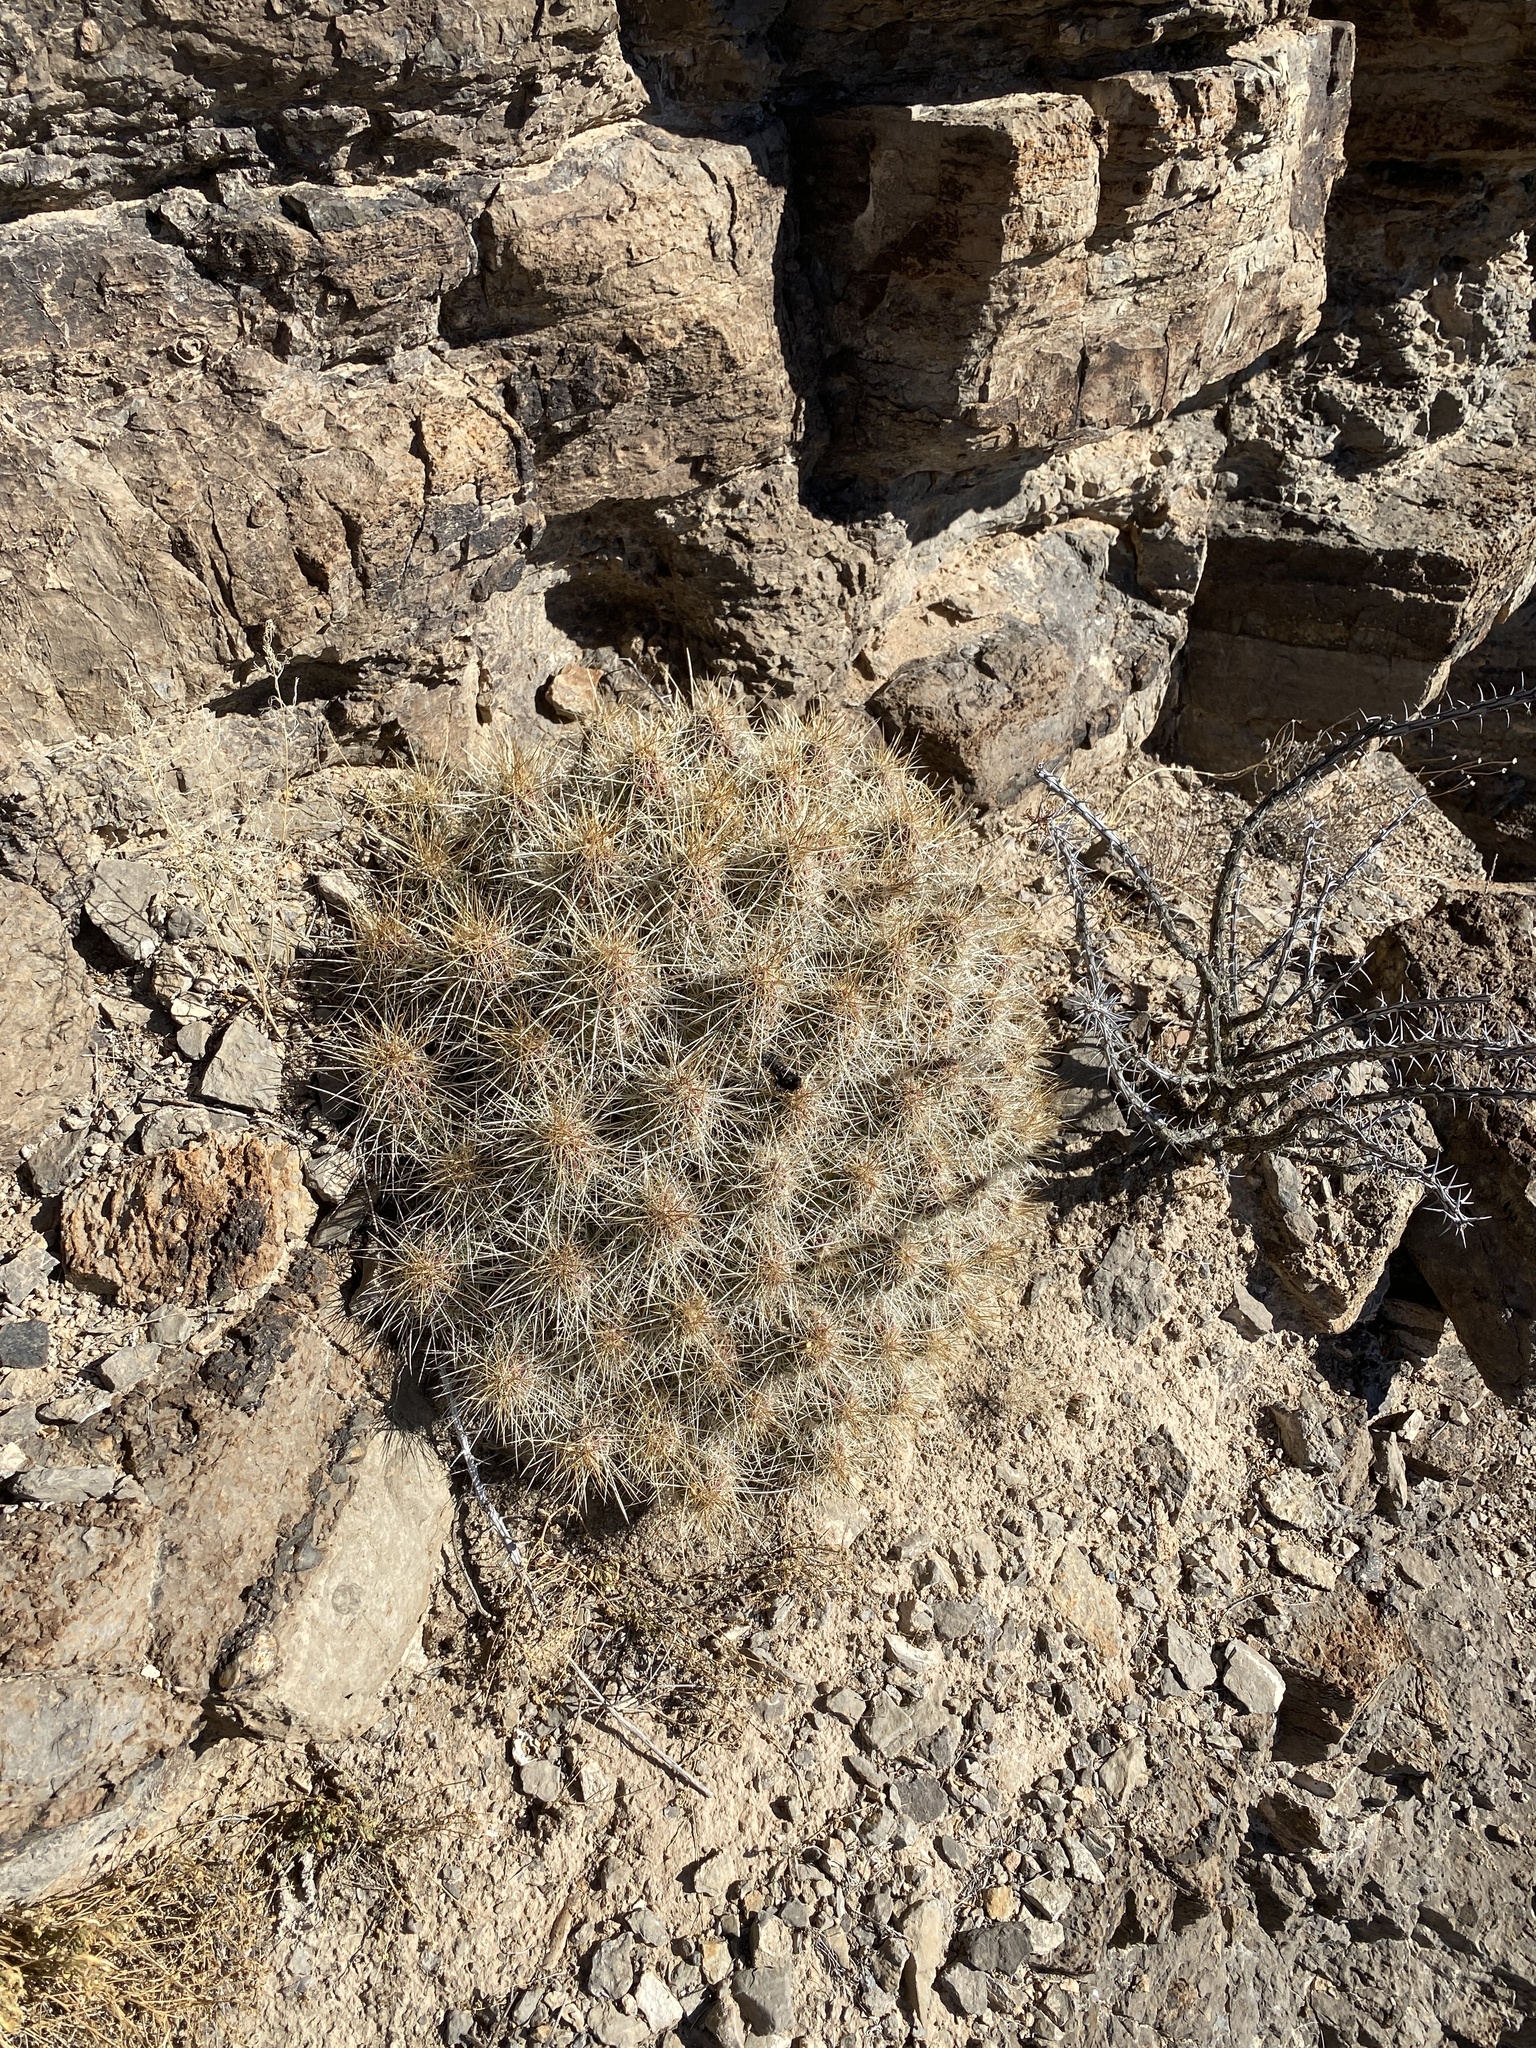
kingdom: Plantae
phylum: Tracheophyta
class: Magnoliopsida
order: Caryophyllales
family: Cactaceae
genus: Echinocereus
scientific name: Echinocereus stramineus
